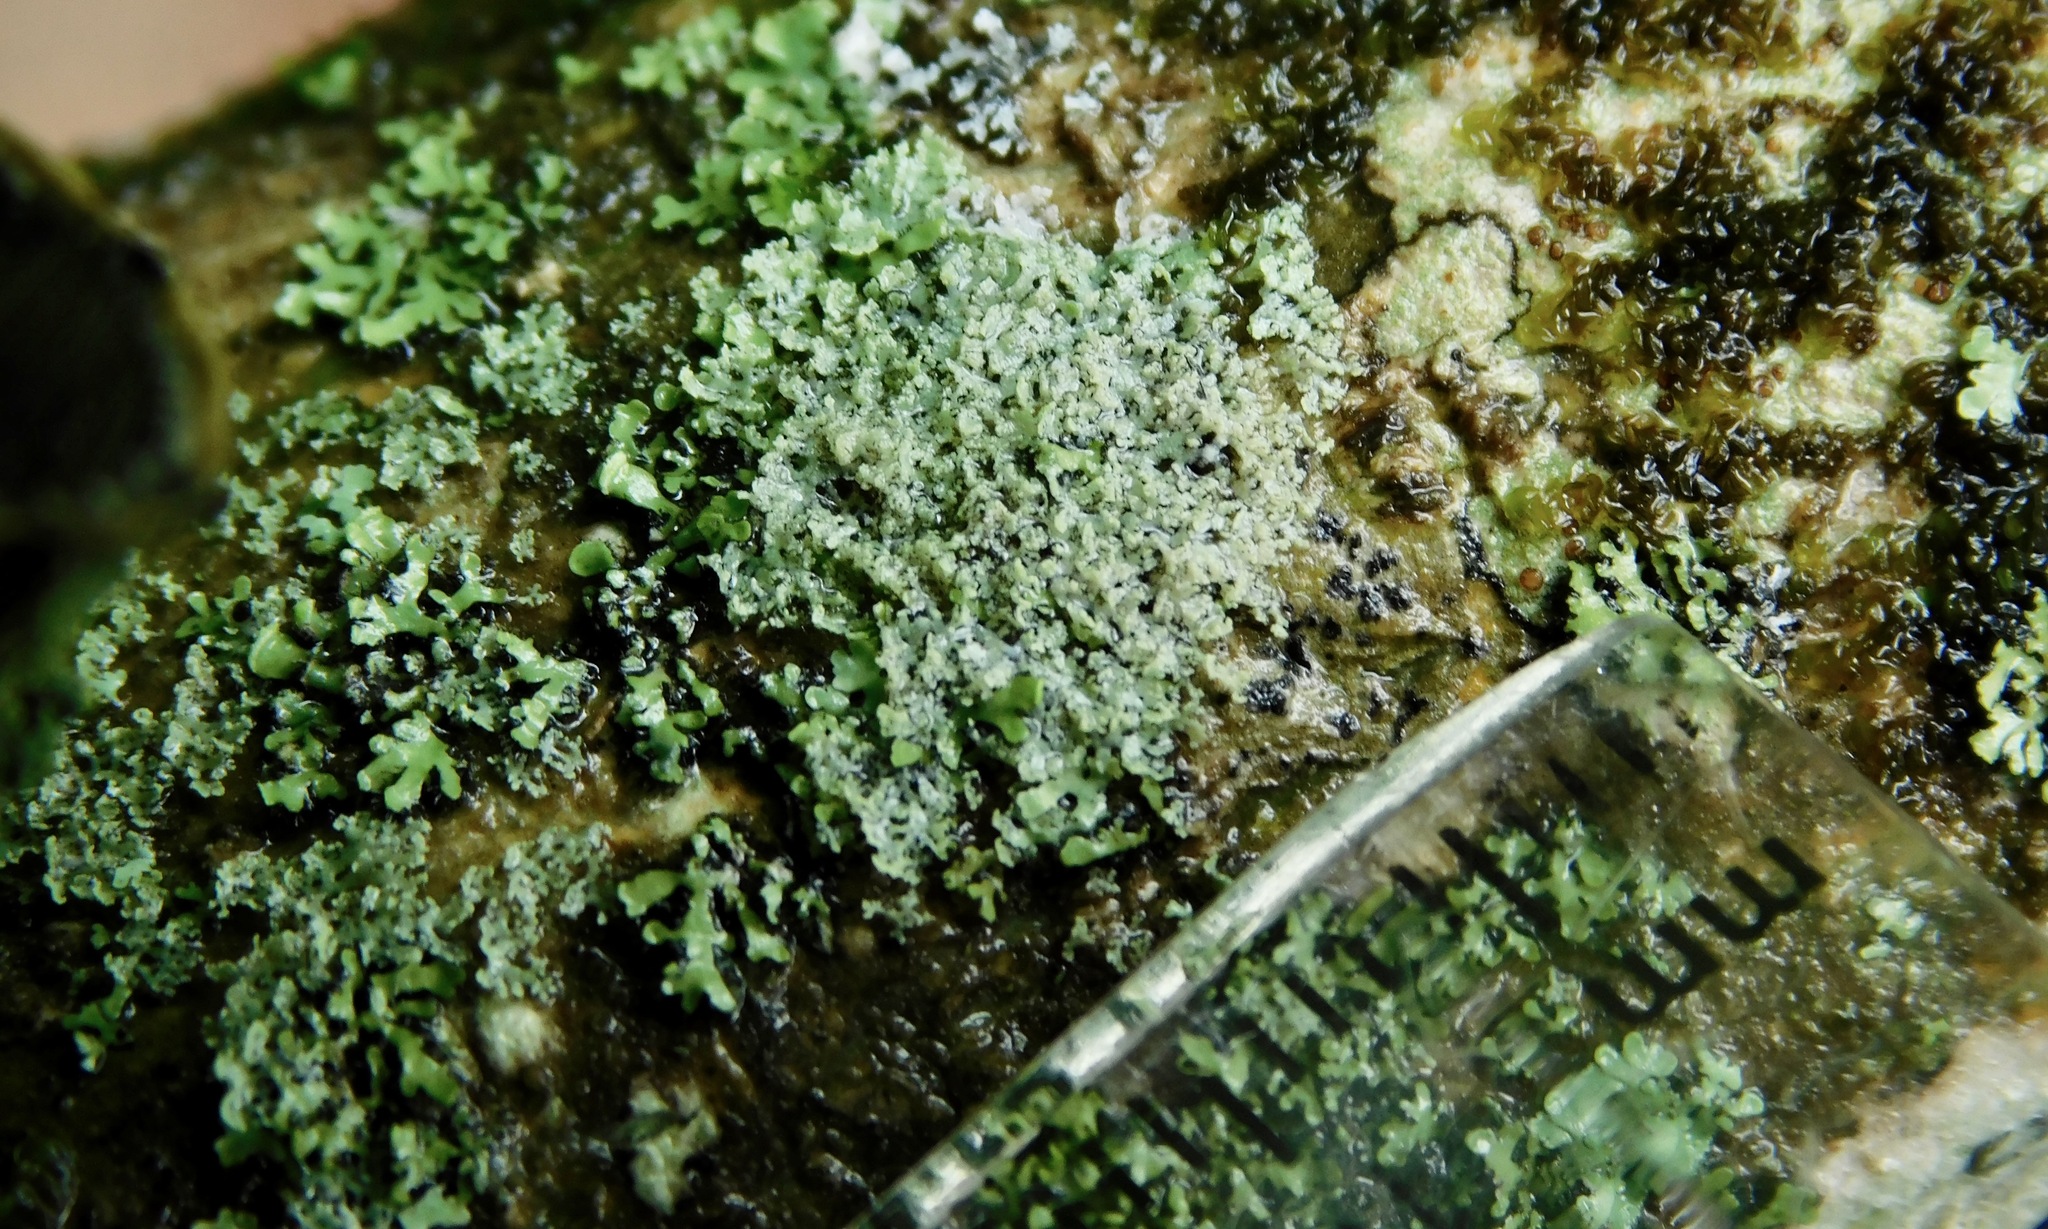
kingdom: Fungi
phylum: Ascomycota
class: Lecanoromycetes
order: Caliciales
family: Physciaceae
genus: Physcia
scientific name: Physcia millegrana
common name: Rosette lichen
